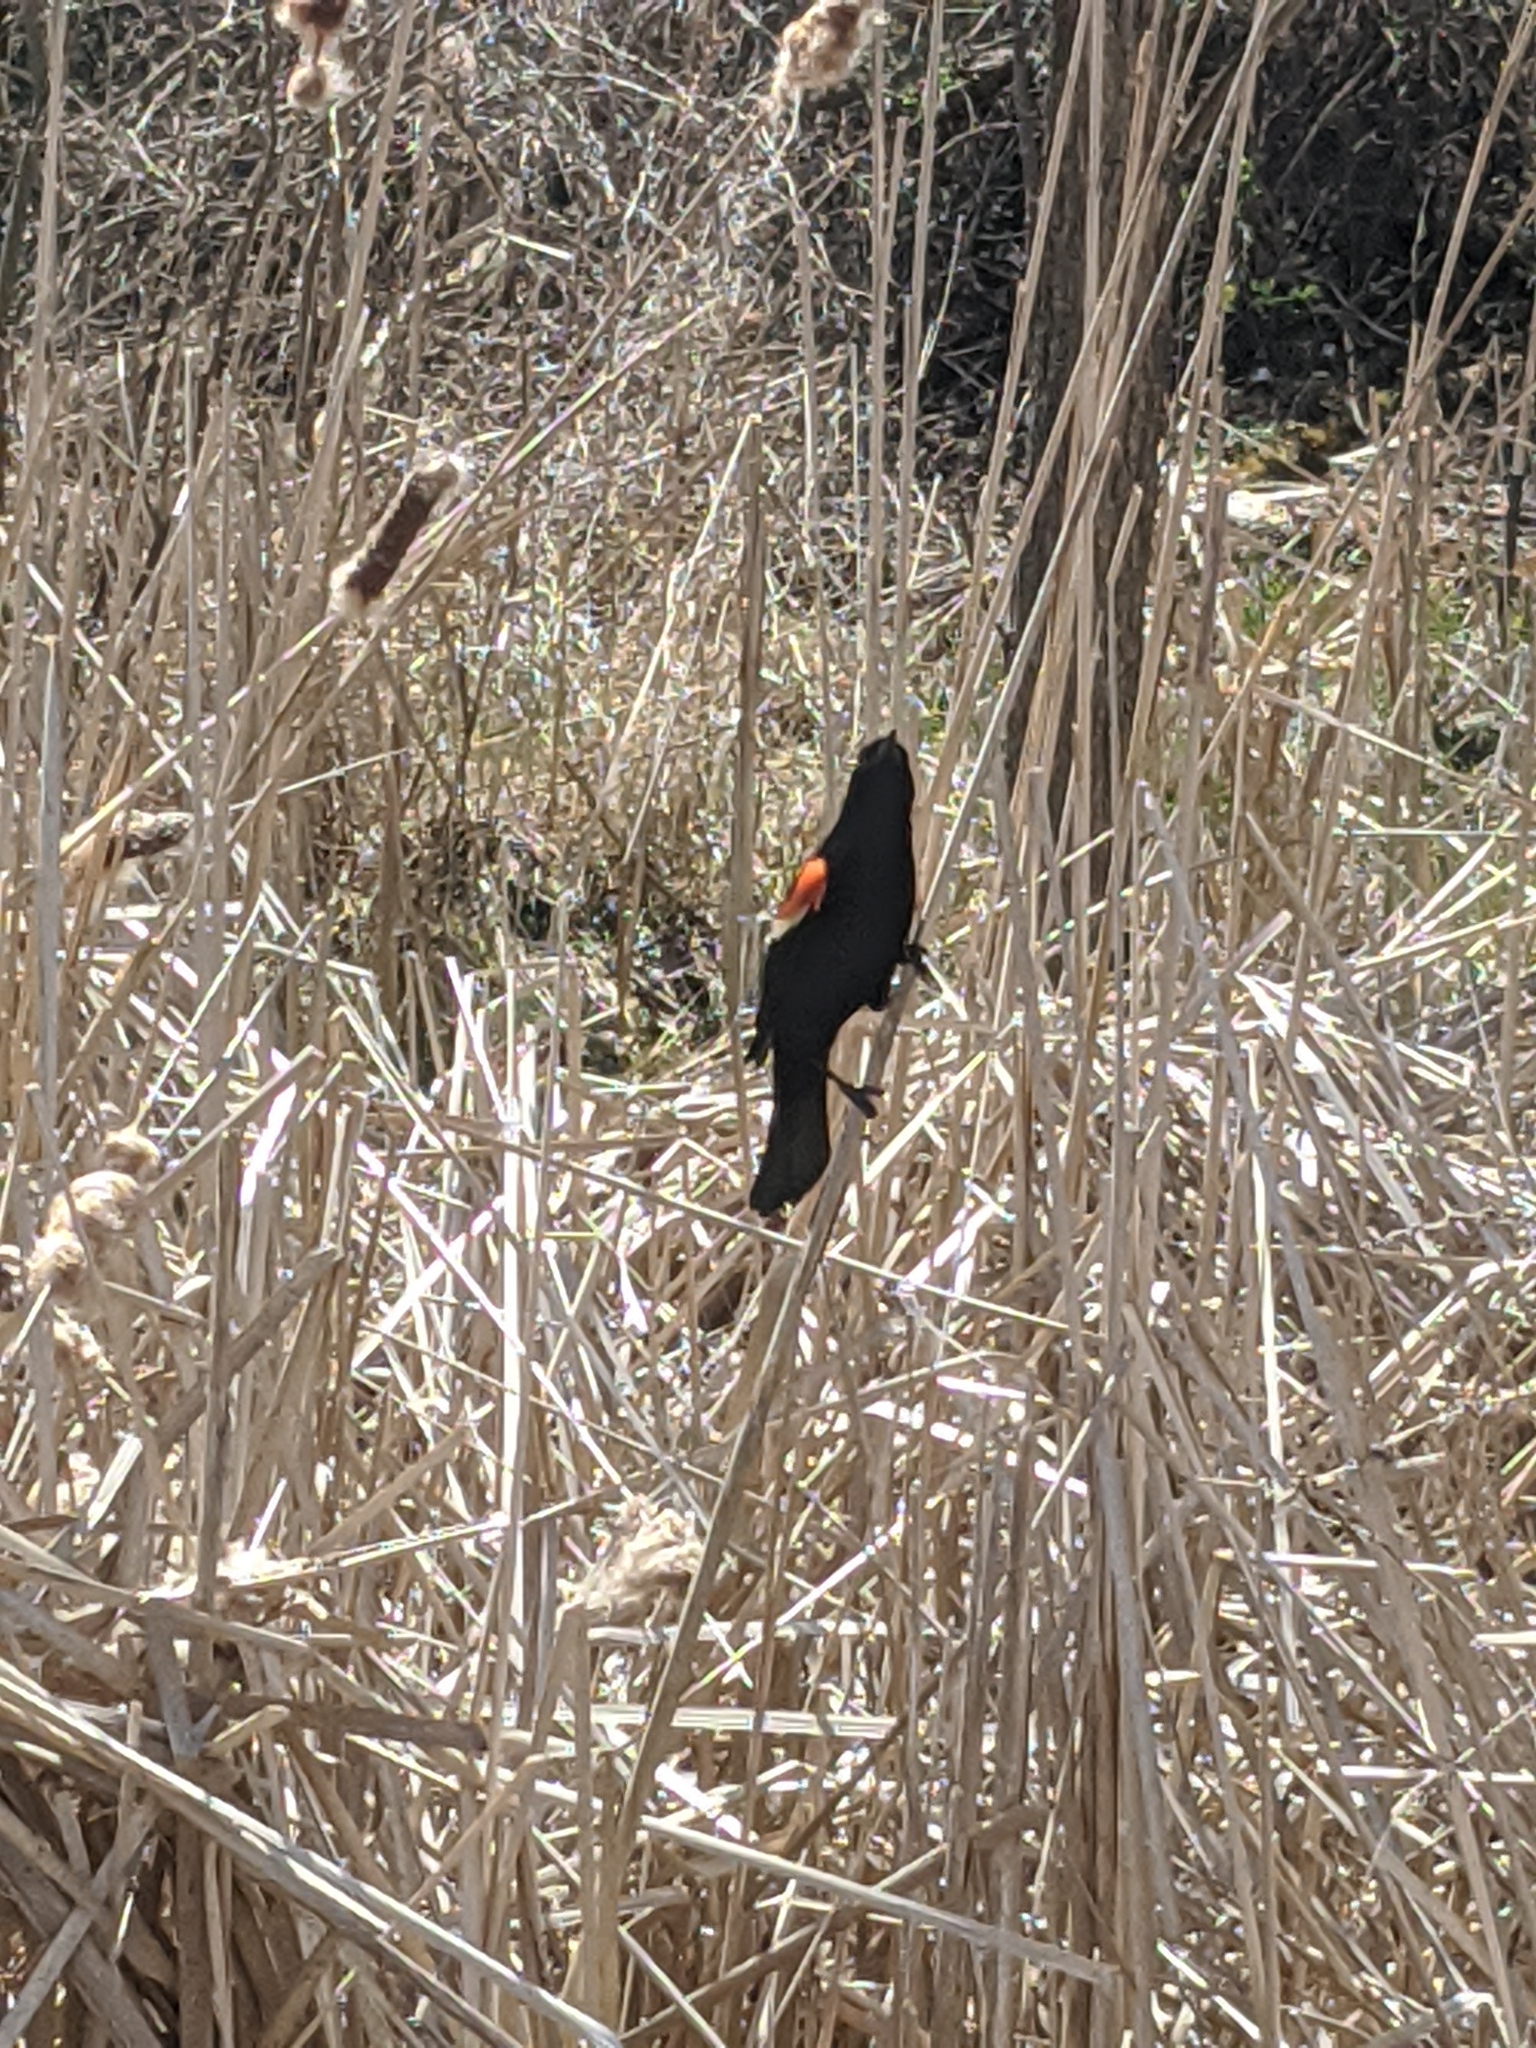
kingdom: Animalia
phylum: Chordata
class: Aves
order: Passeriformes
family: Icteridae
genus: Agelaius
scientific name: Agelaius phoeniceus
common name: Red-winged blackbird
